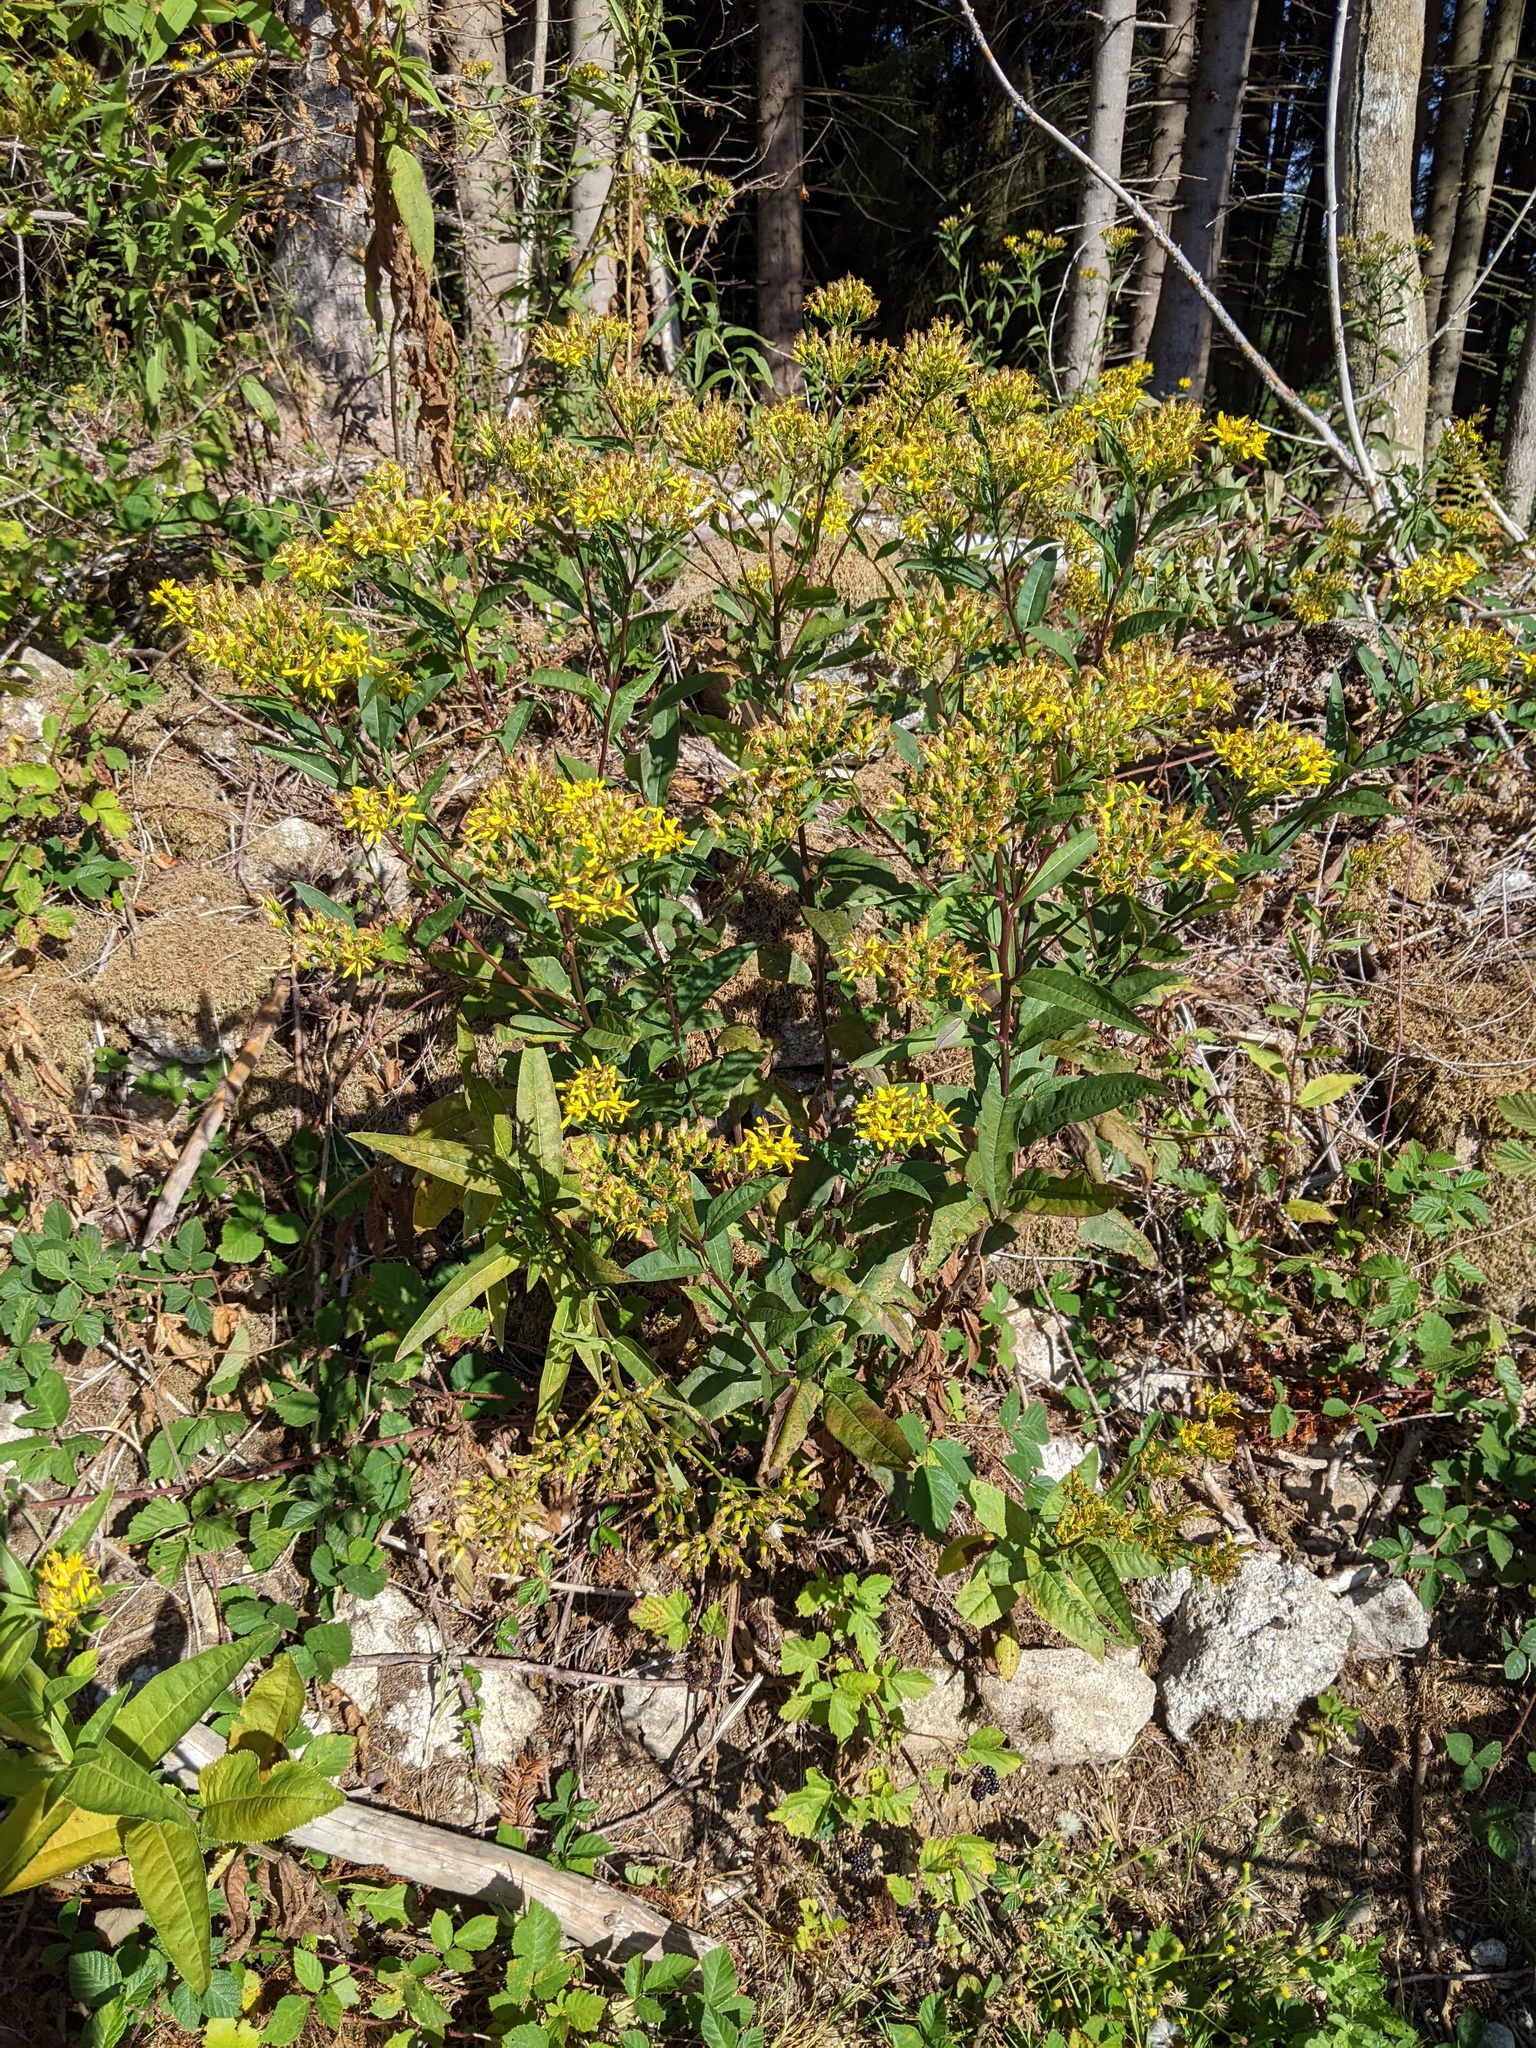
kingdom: Plantae
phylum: Tracheophyta
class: Magnoliopsida
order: Asterales
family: Asteraceae
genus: Senecio
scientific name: Senecio ovatus
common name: Wood ragwort
